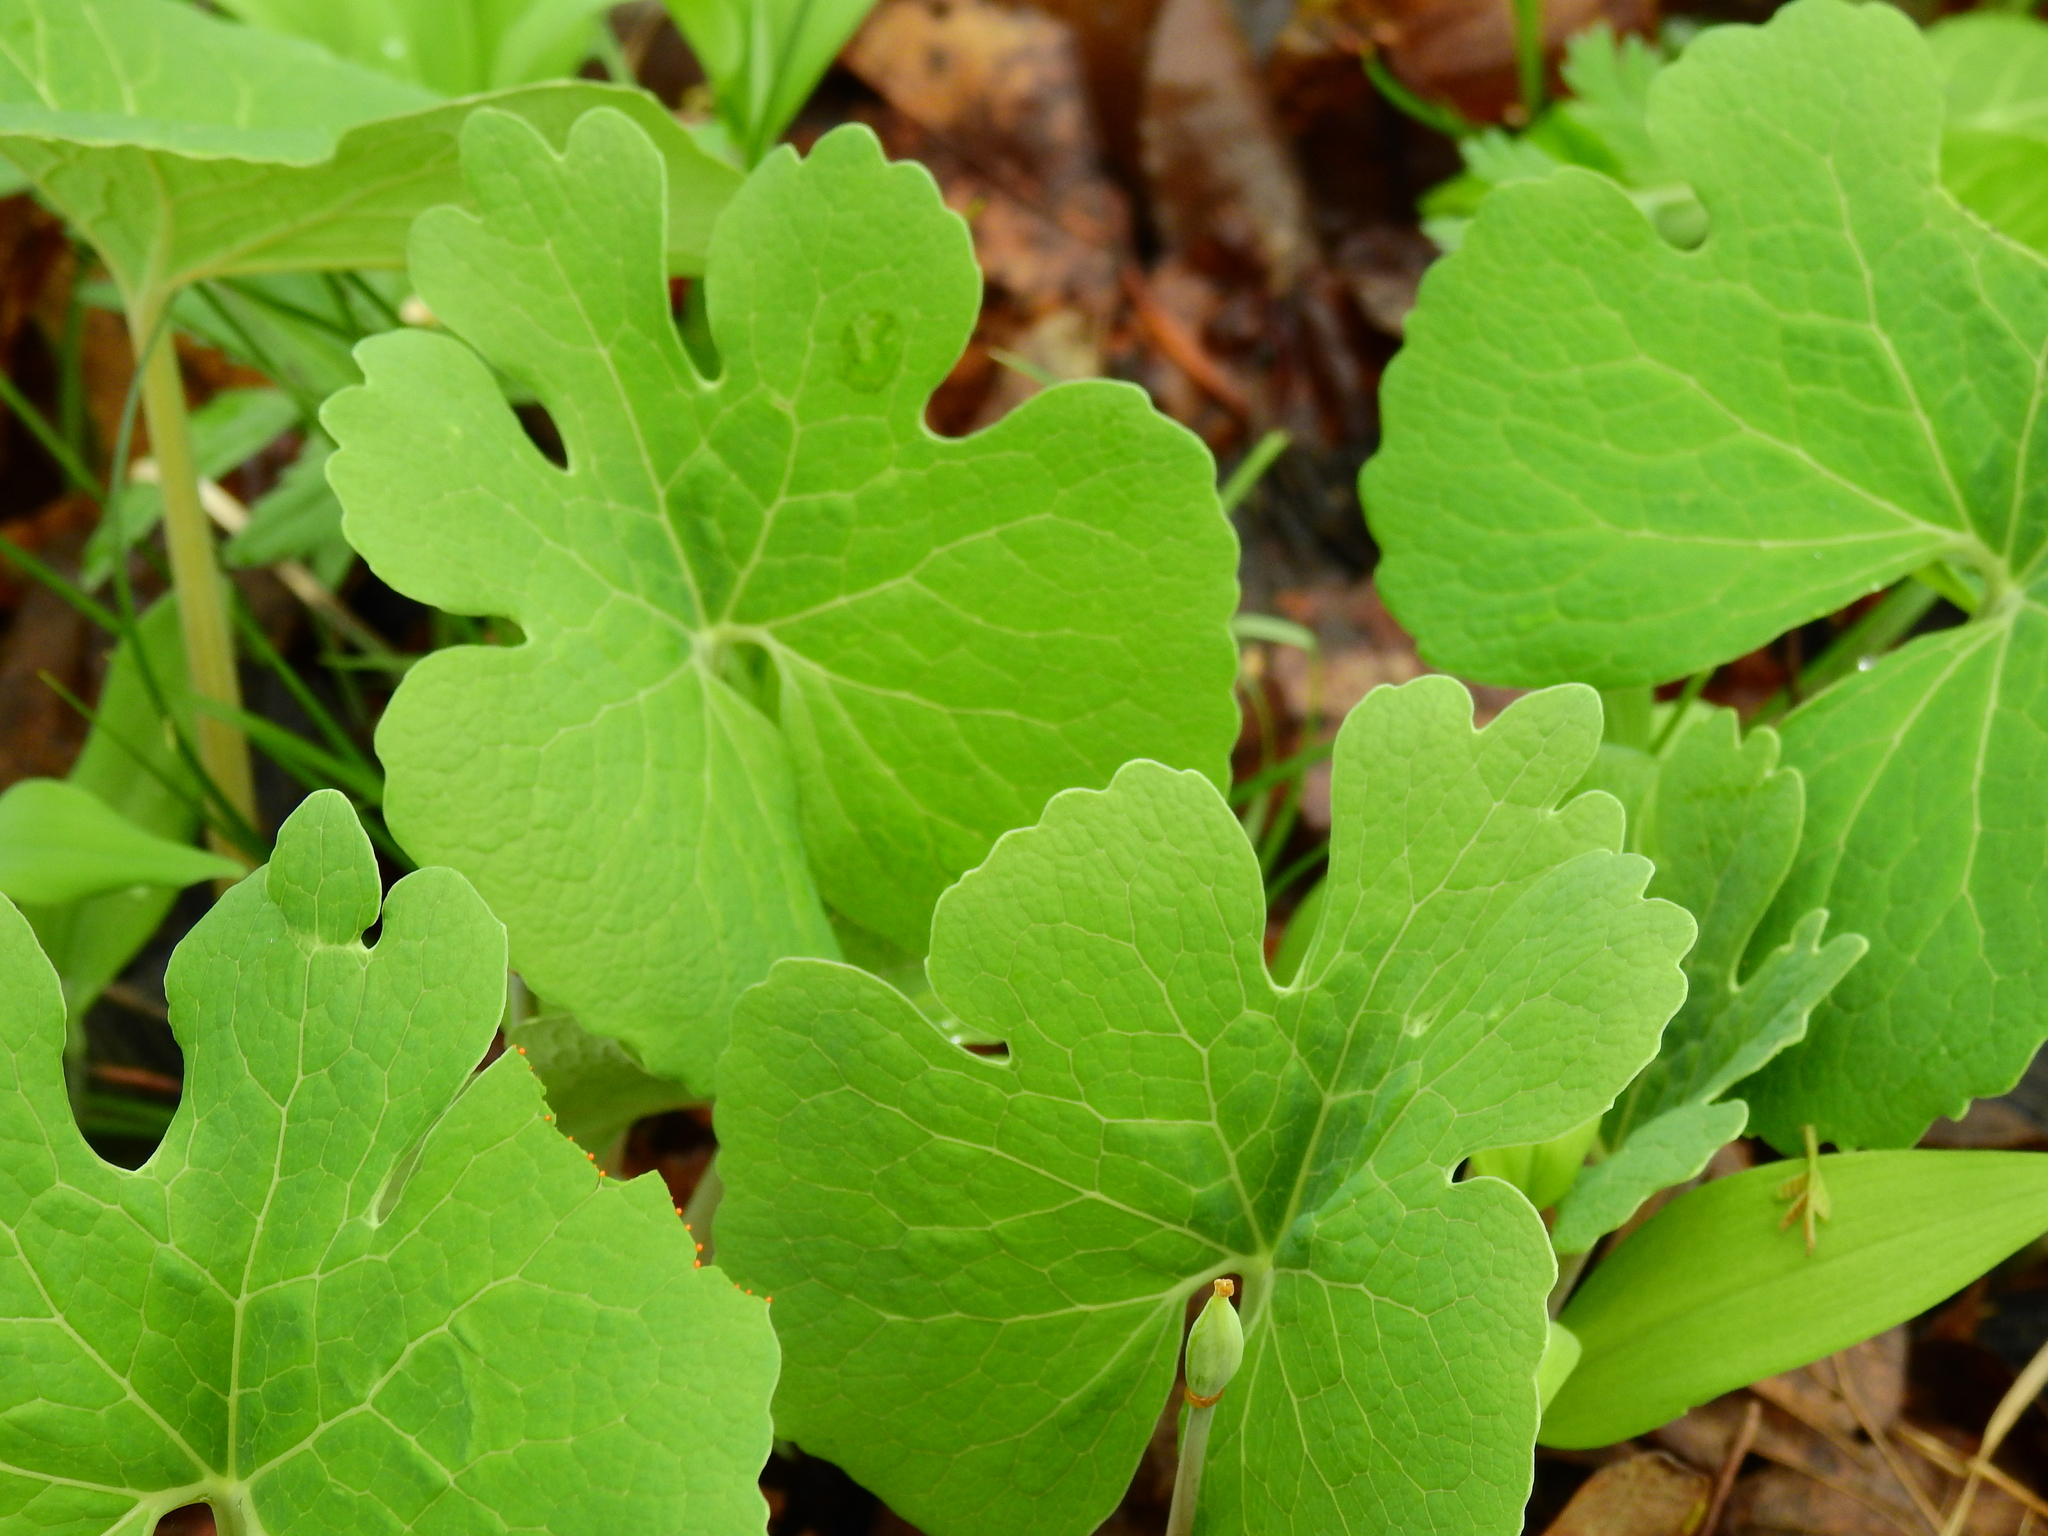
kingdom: Plantae
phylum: Tracheophyta
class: Magnoliopsida
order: Ranunculales
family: Papaveraceae
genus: Sanguinaria
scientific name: Sanguinaria canadensis
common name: Bloodroot
